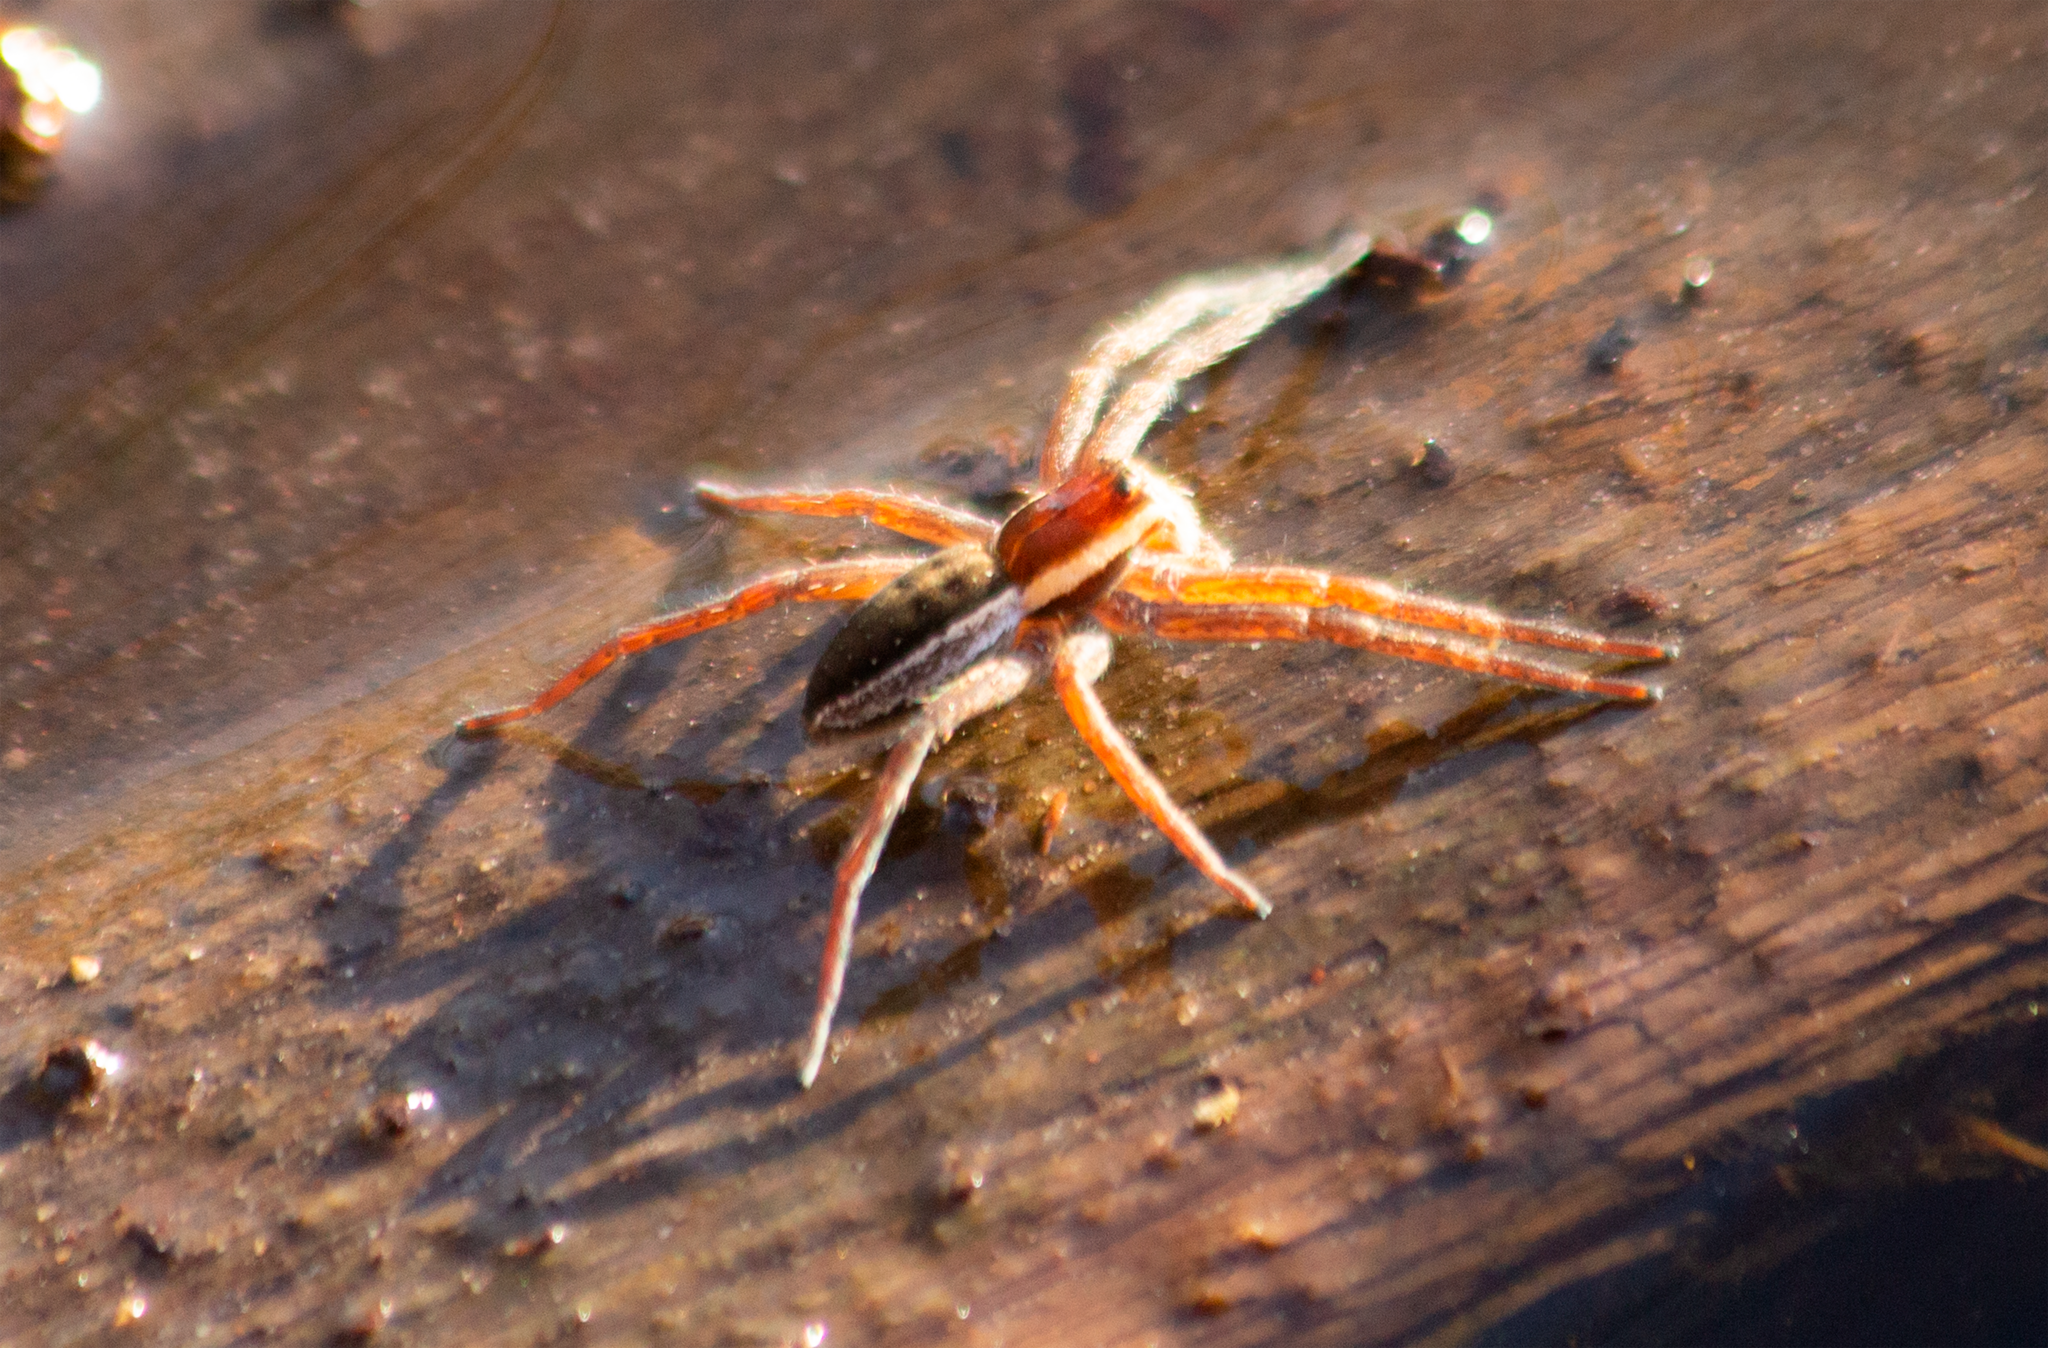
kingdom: Animalia
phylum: Arthropoda
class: Arachnida
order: Araneae
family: Pisauridae
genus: Dolomedes
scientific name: Dolomedes
